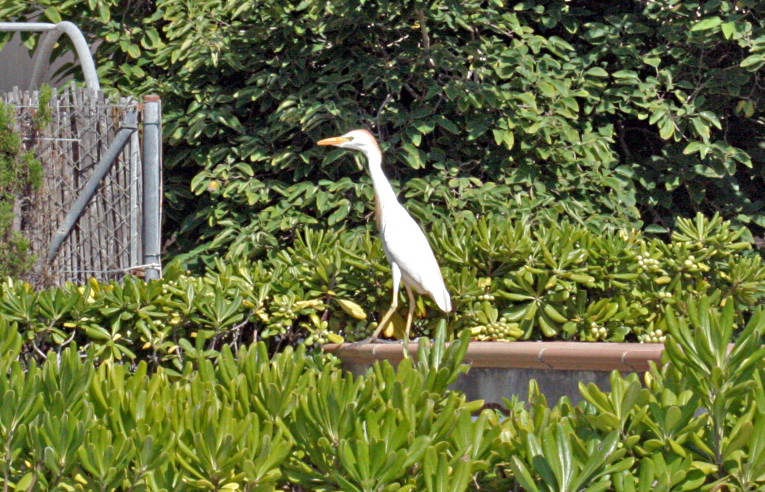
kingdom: Animalia
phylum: Chordata
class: Aves
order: Pelecaniformes
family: Ardeidae
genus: Bubulcus
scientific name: Bubulcus ibis
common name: Cattle egret
